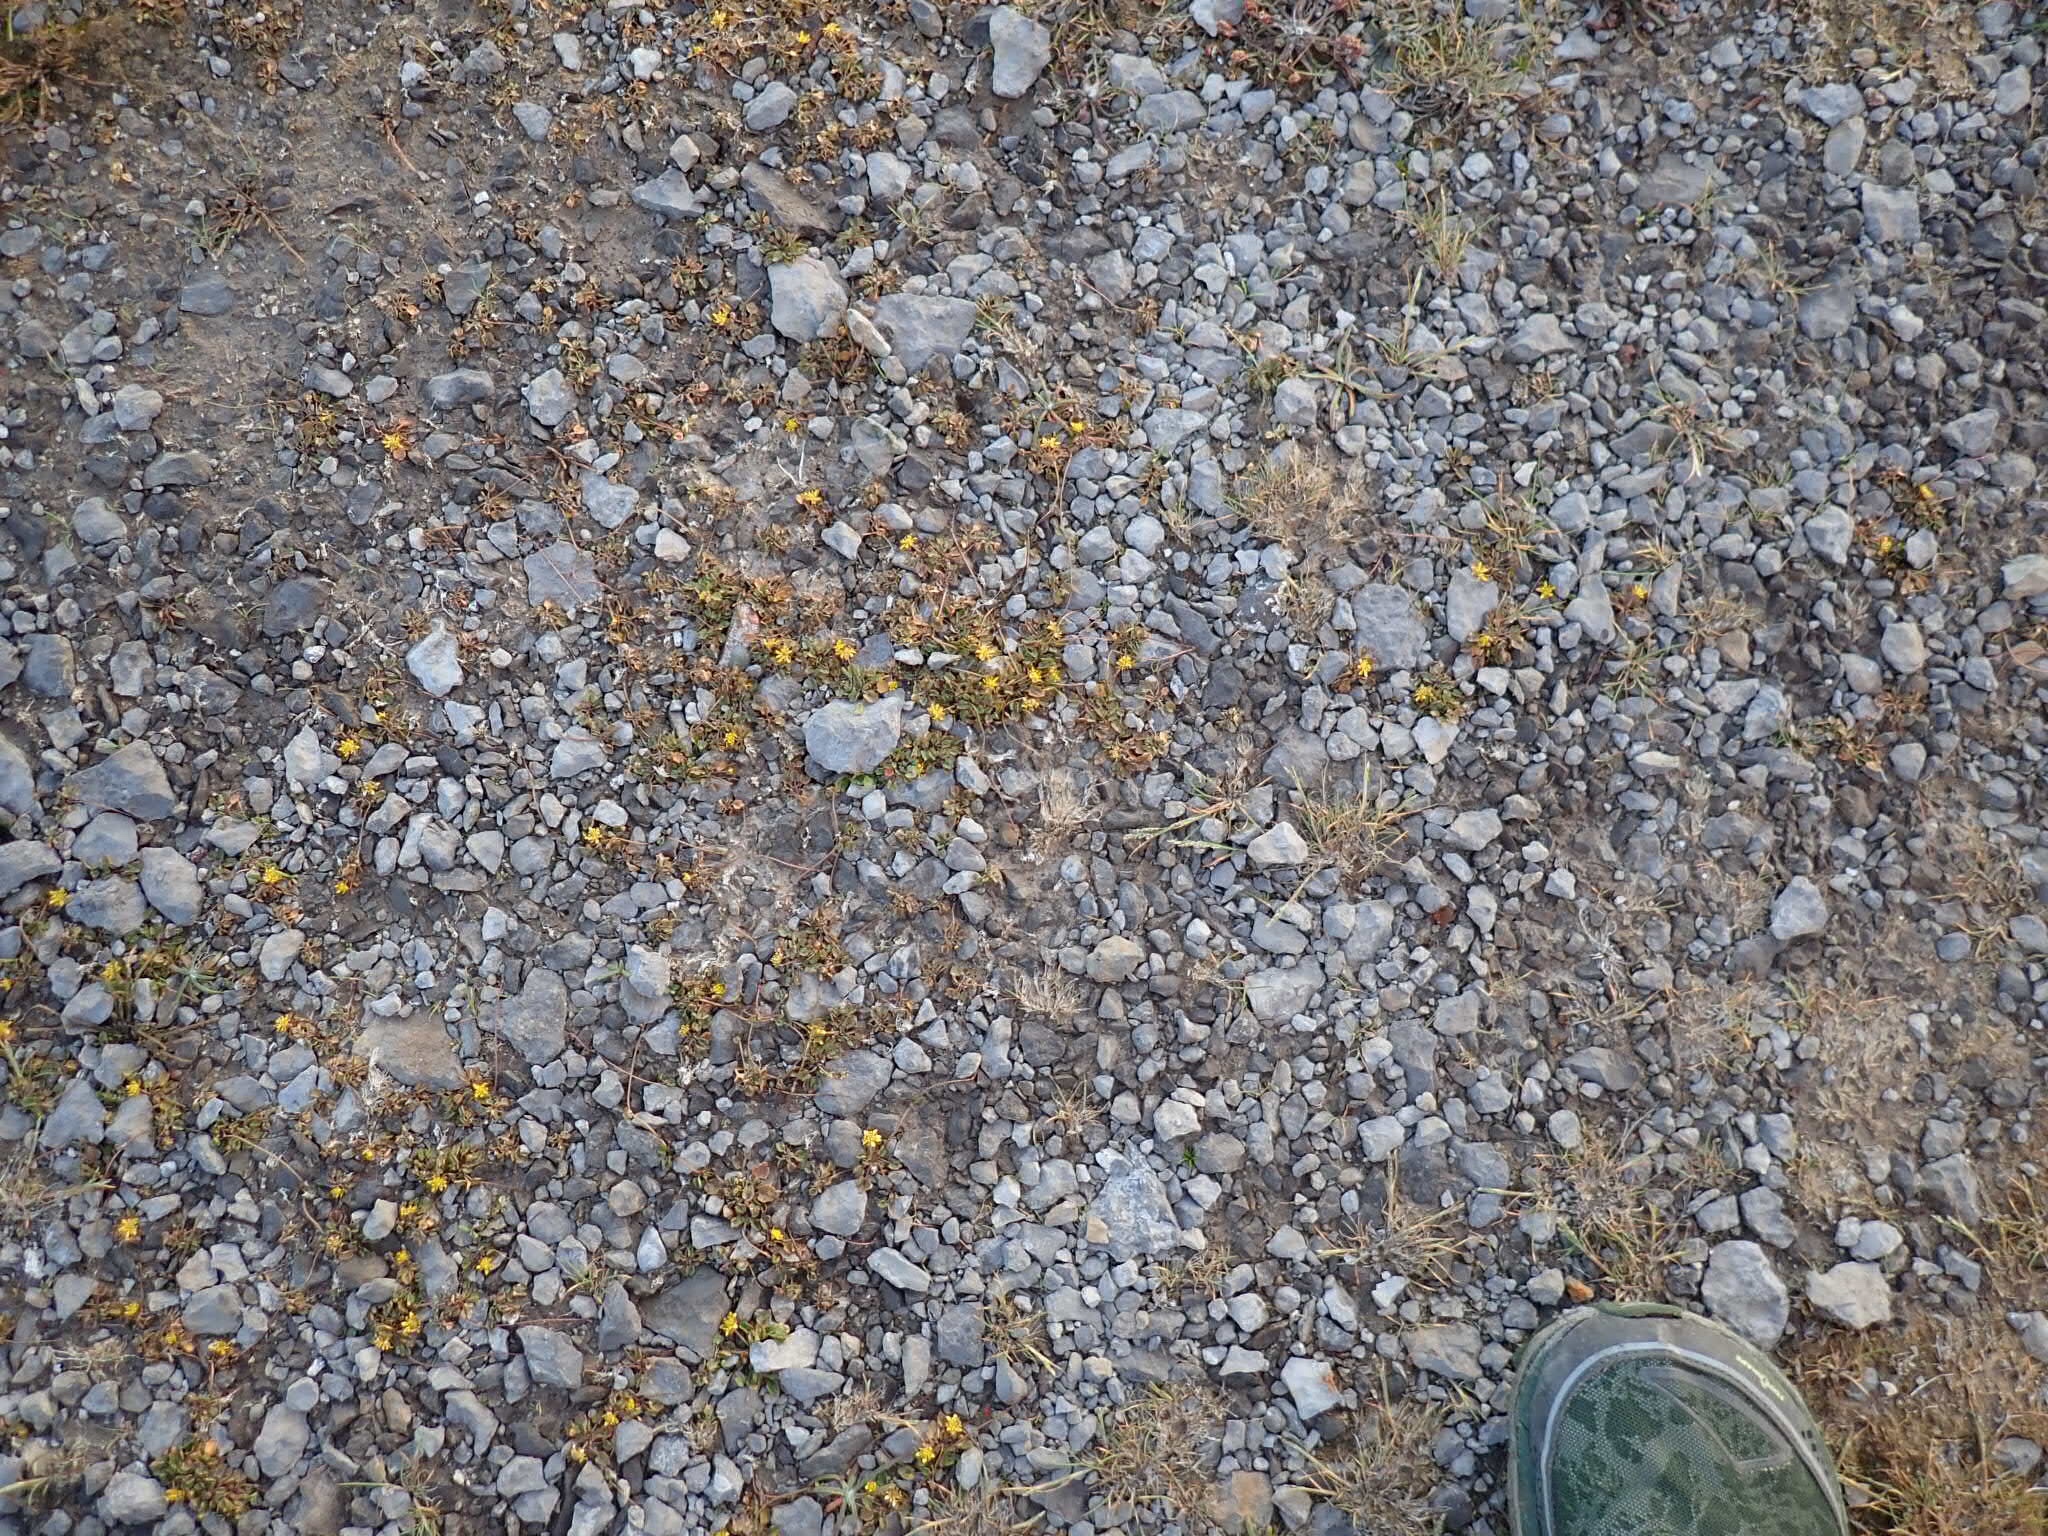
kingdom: Plantae
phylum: Tracheophyta
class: Magnoliopsida
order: Ranunculales
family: Ranunculaceae
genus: Halerpestes
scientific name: Halerpestes cymbalaria
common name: Seaside crowfoot
